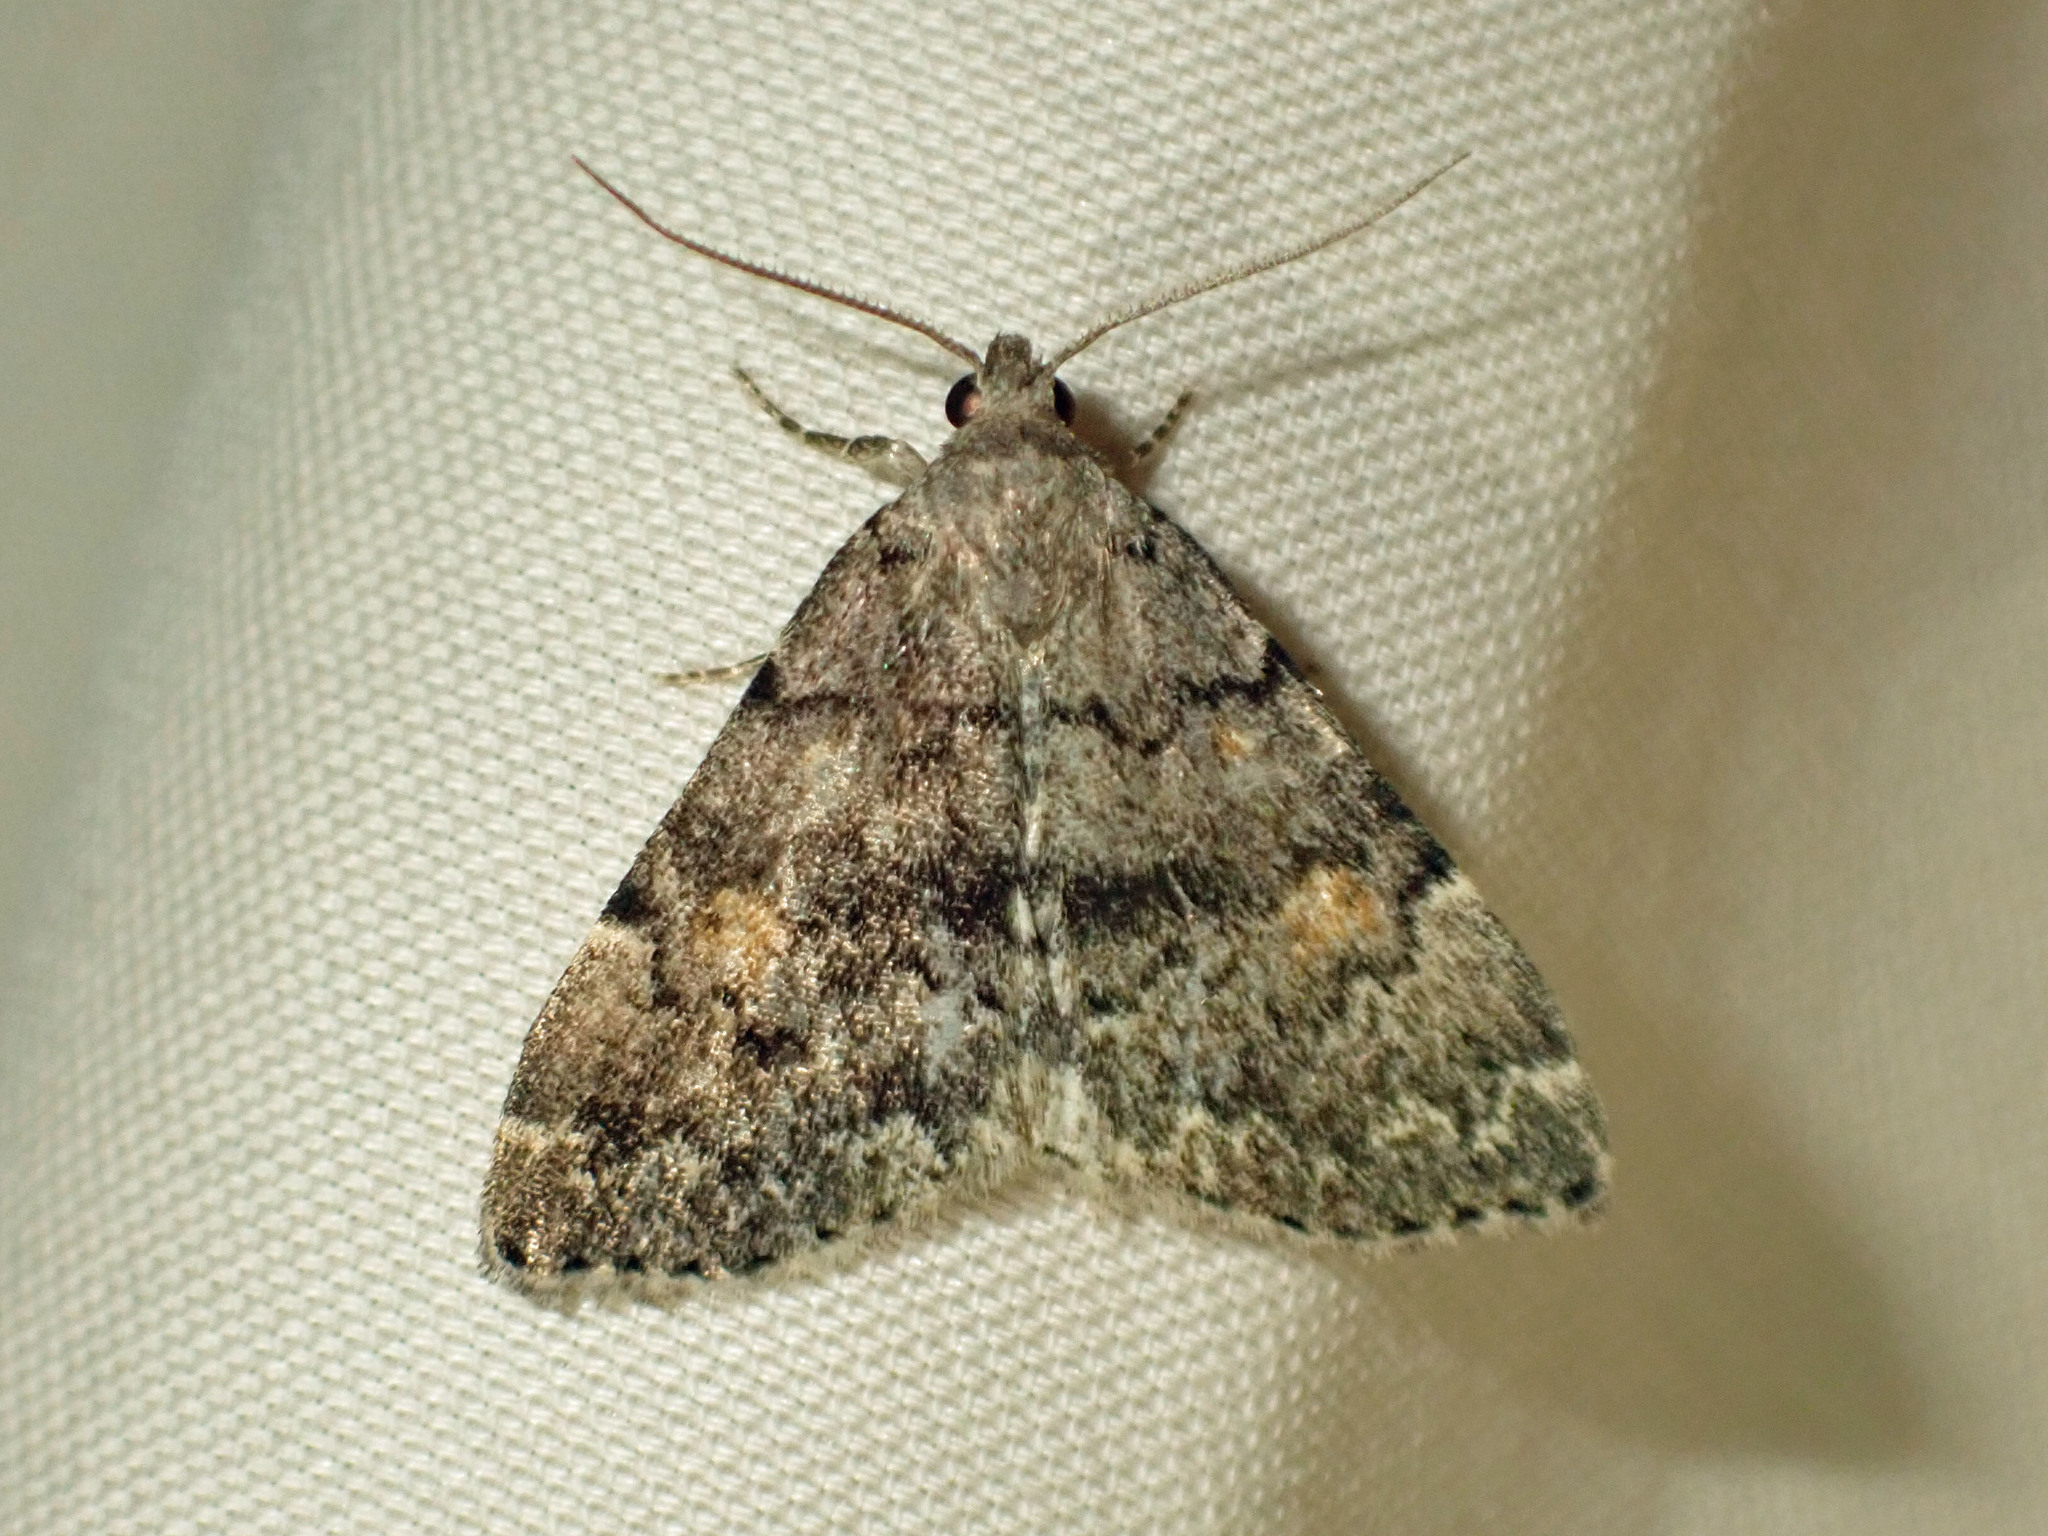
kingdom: Animalia
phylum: Arthropoda
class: Insecta
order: Lepidoptera
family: Erebidae
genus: Idia
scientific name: Idia aemula
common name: Common idia moth
